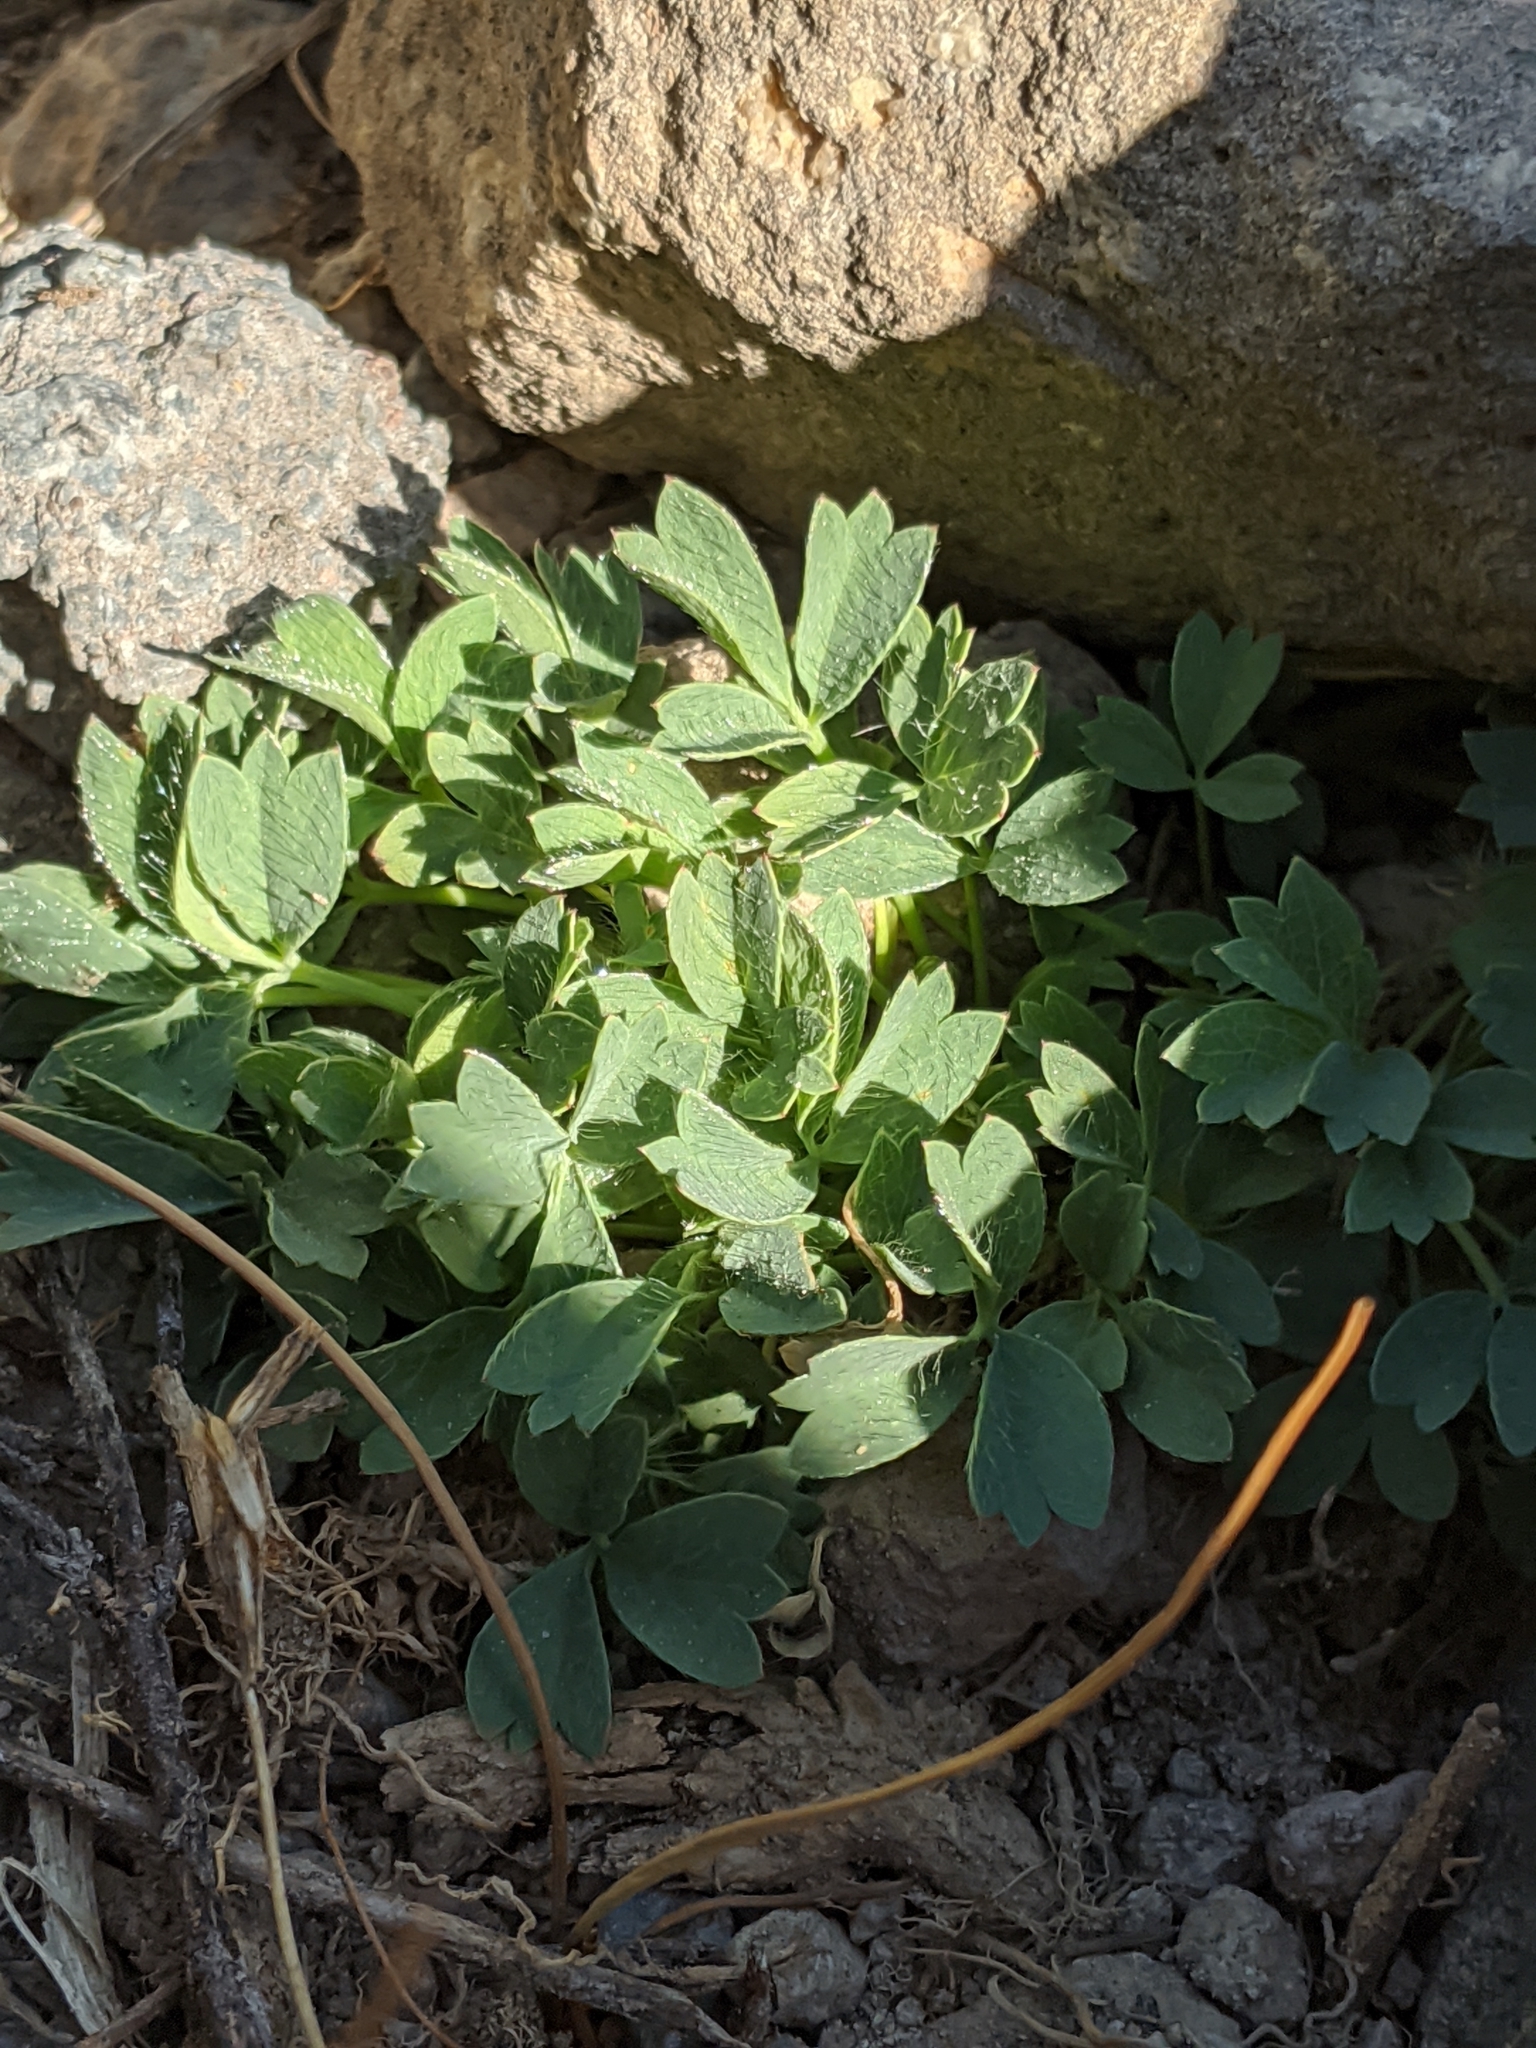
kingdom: Plantae
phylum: Tracheophyta
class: Magnoliopsida
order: Rosales
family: Rosaceae
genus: Sibbaldia
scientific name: Sibbaldia procumbens
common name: Creeping sibbaldia
